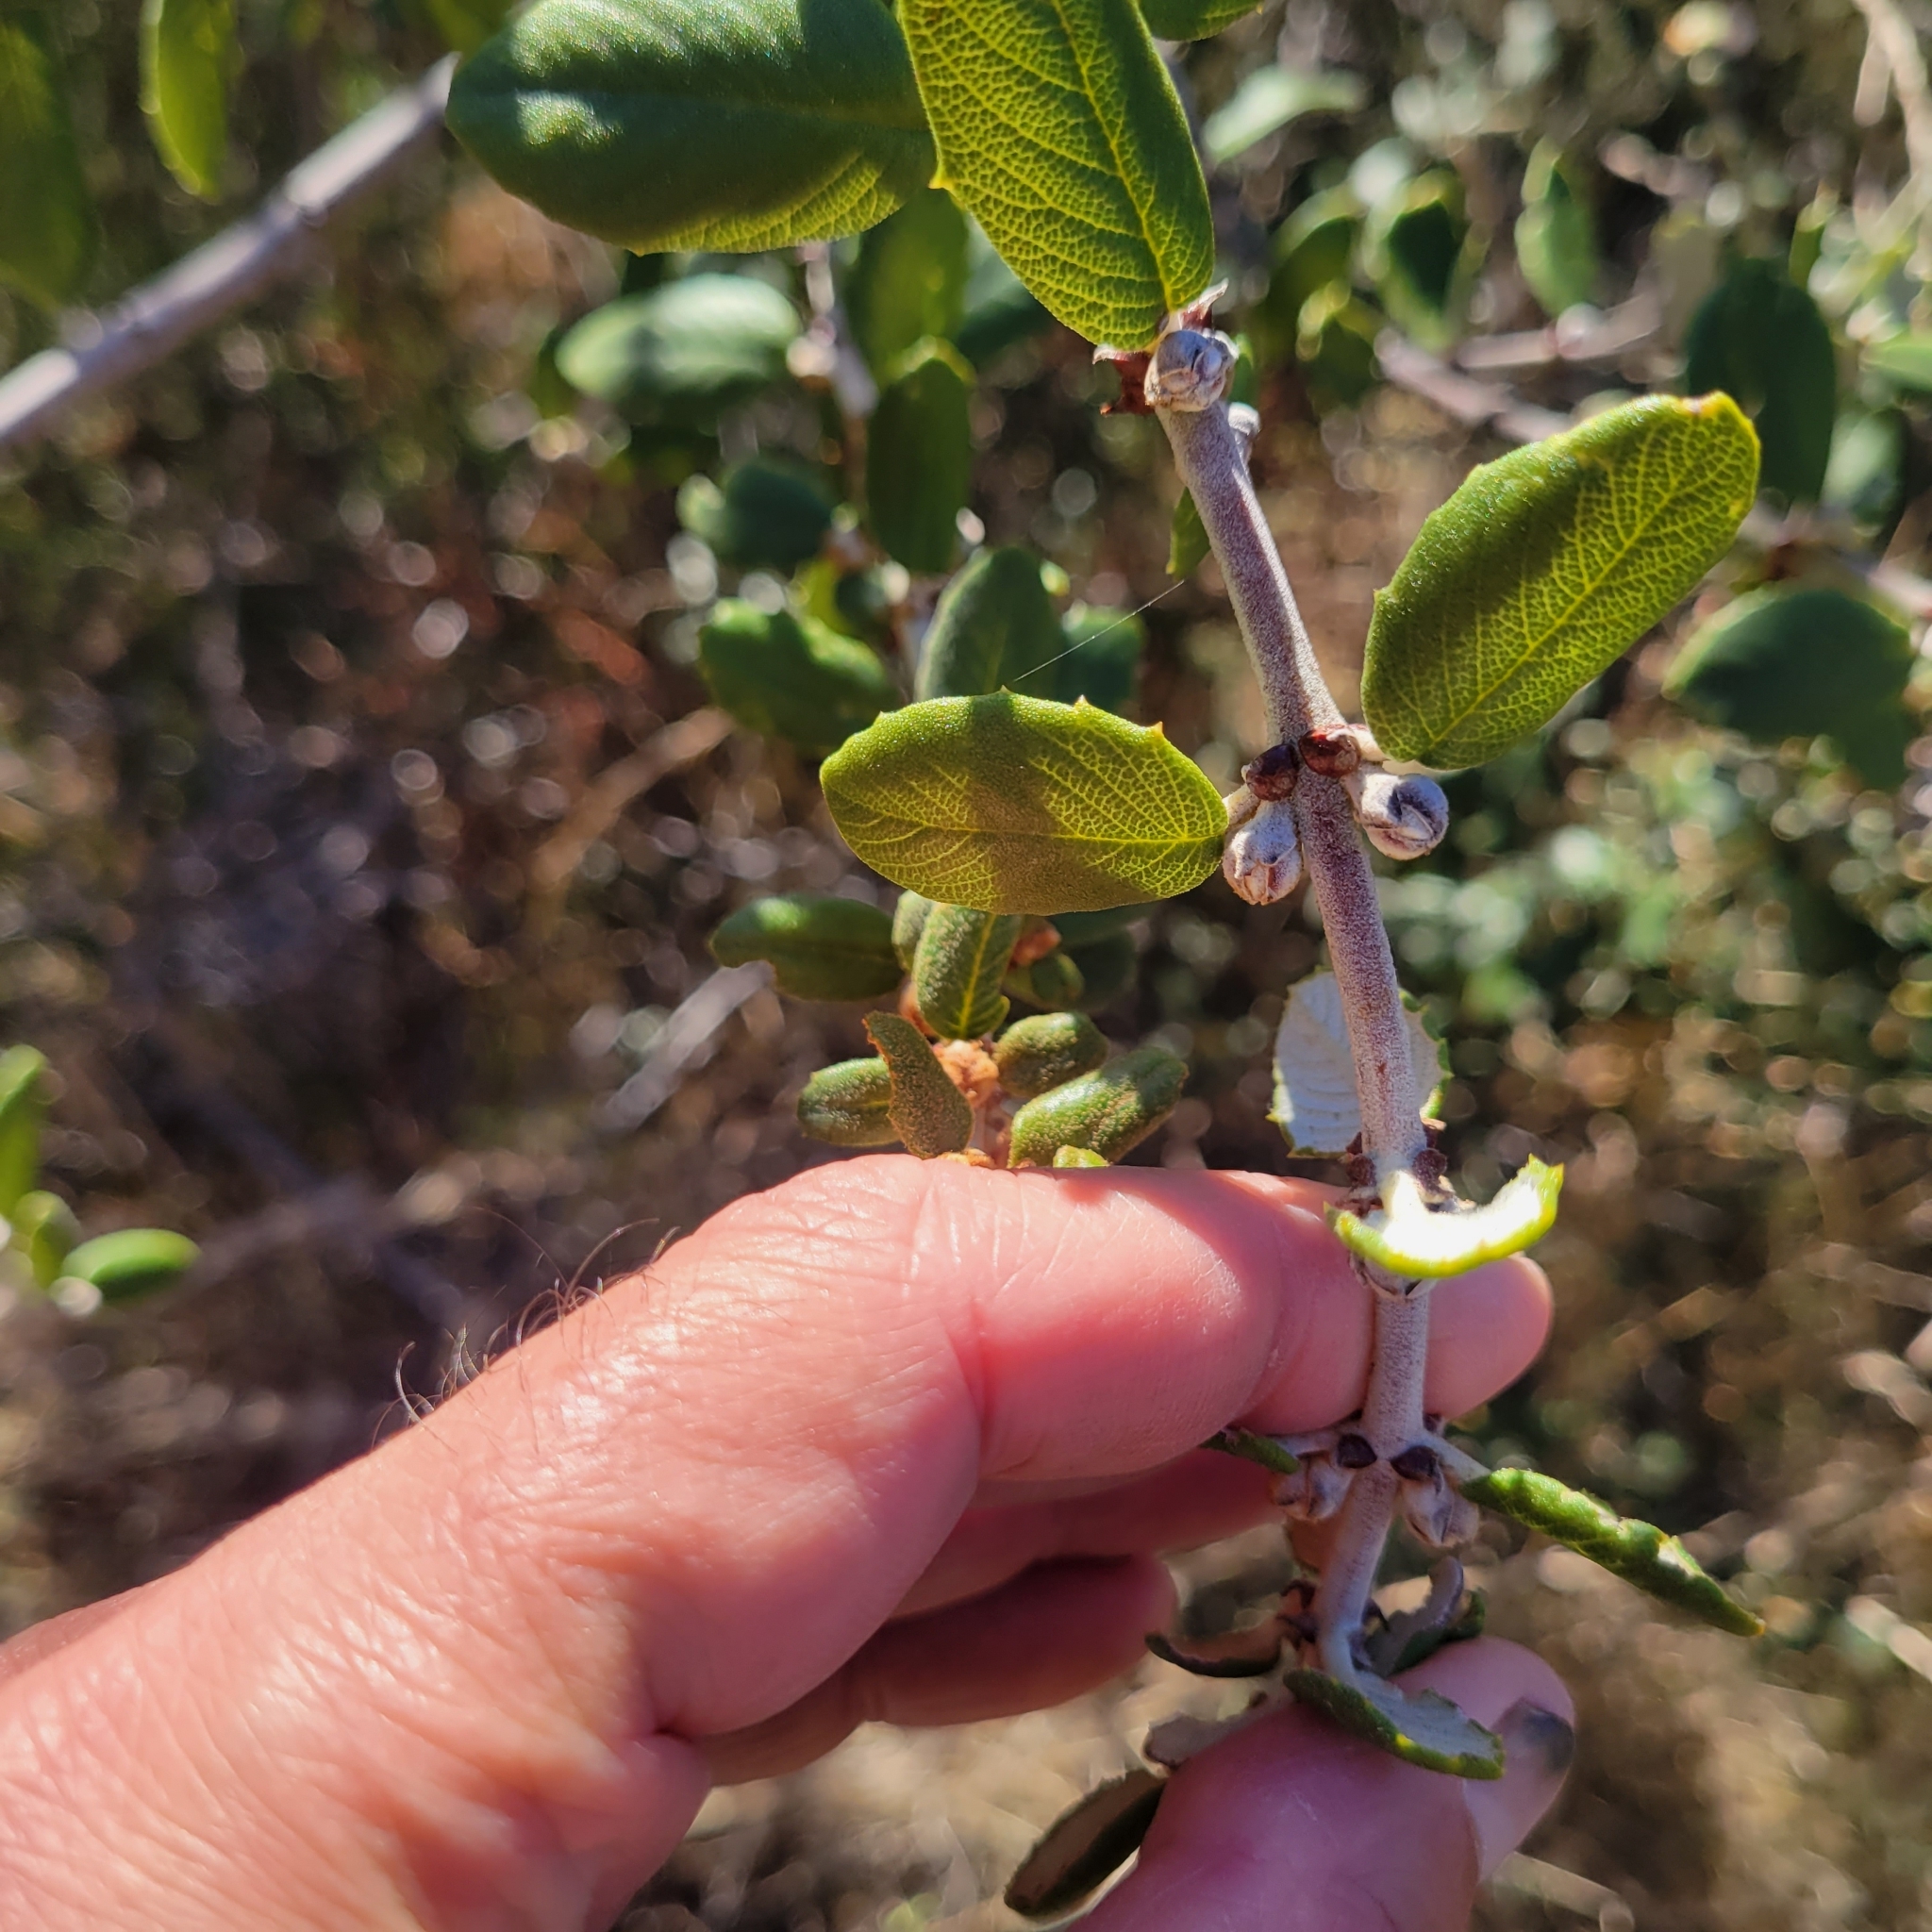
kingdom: Plantae
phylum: Tracheophyta
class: Magnoliopsida
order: Rosales
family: Rhamnaceae
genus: Ceanothus
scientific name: Ceanothus crassifolius
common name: Hoaryleaf ceanothus
